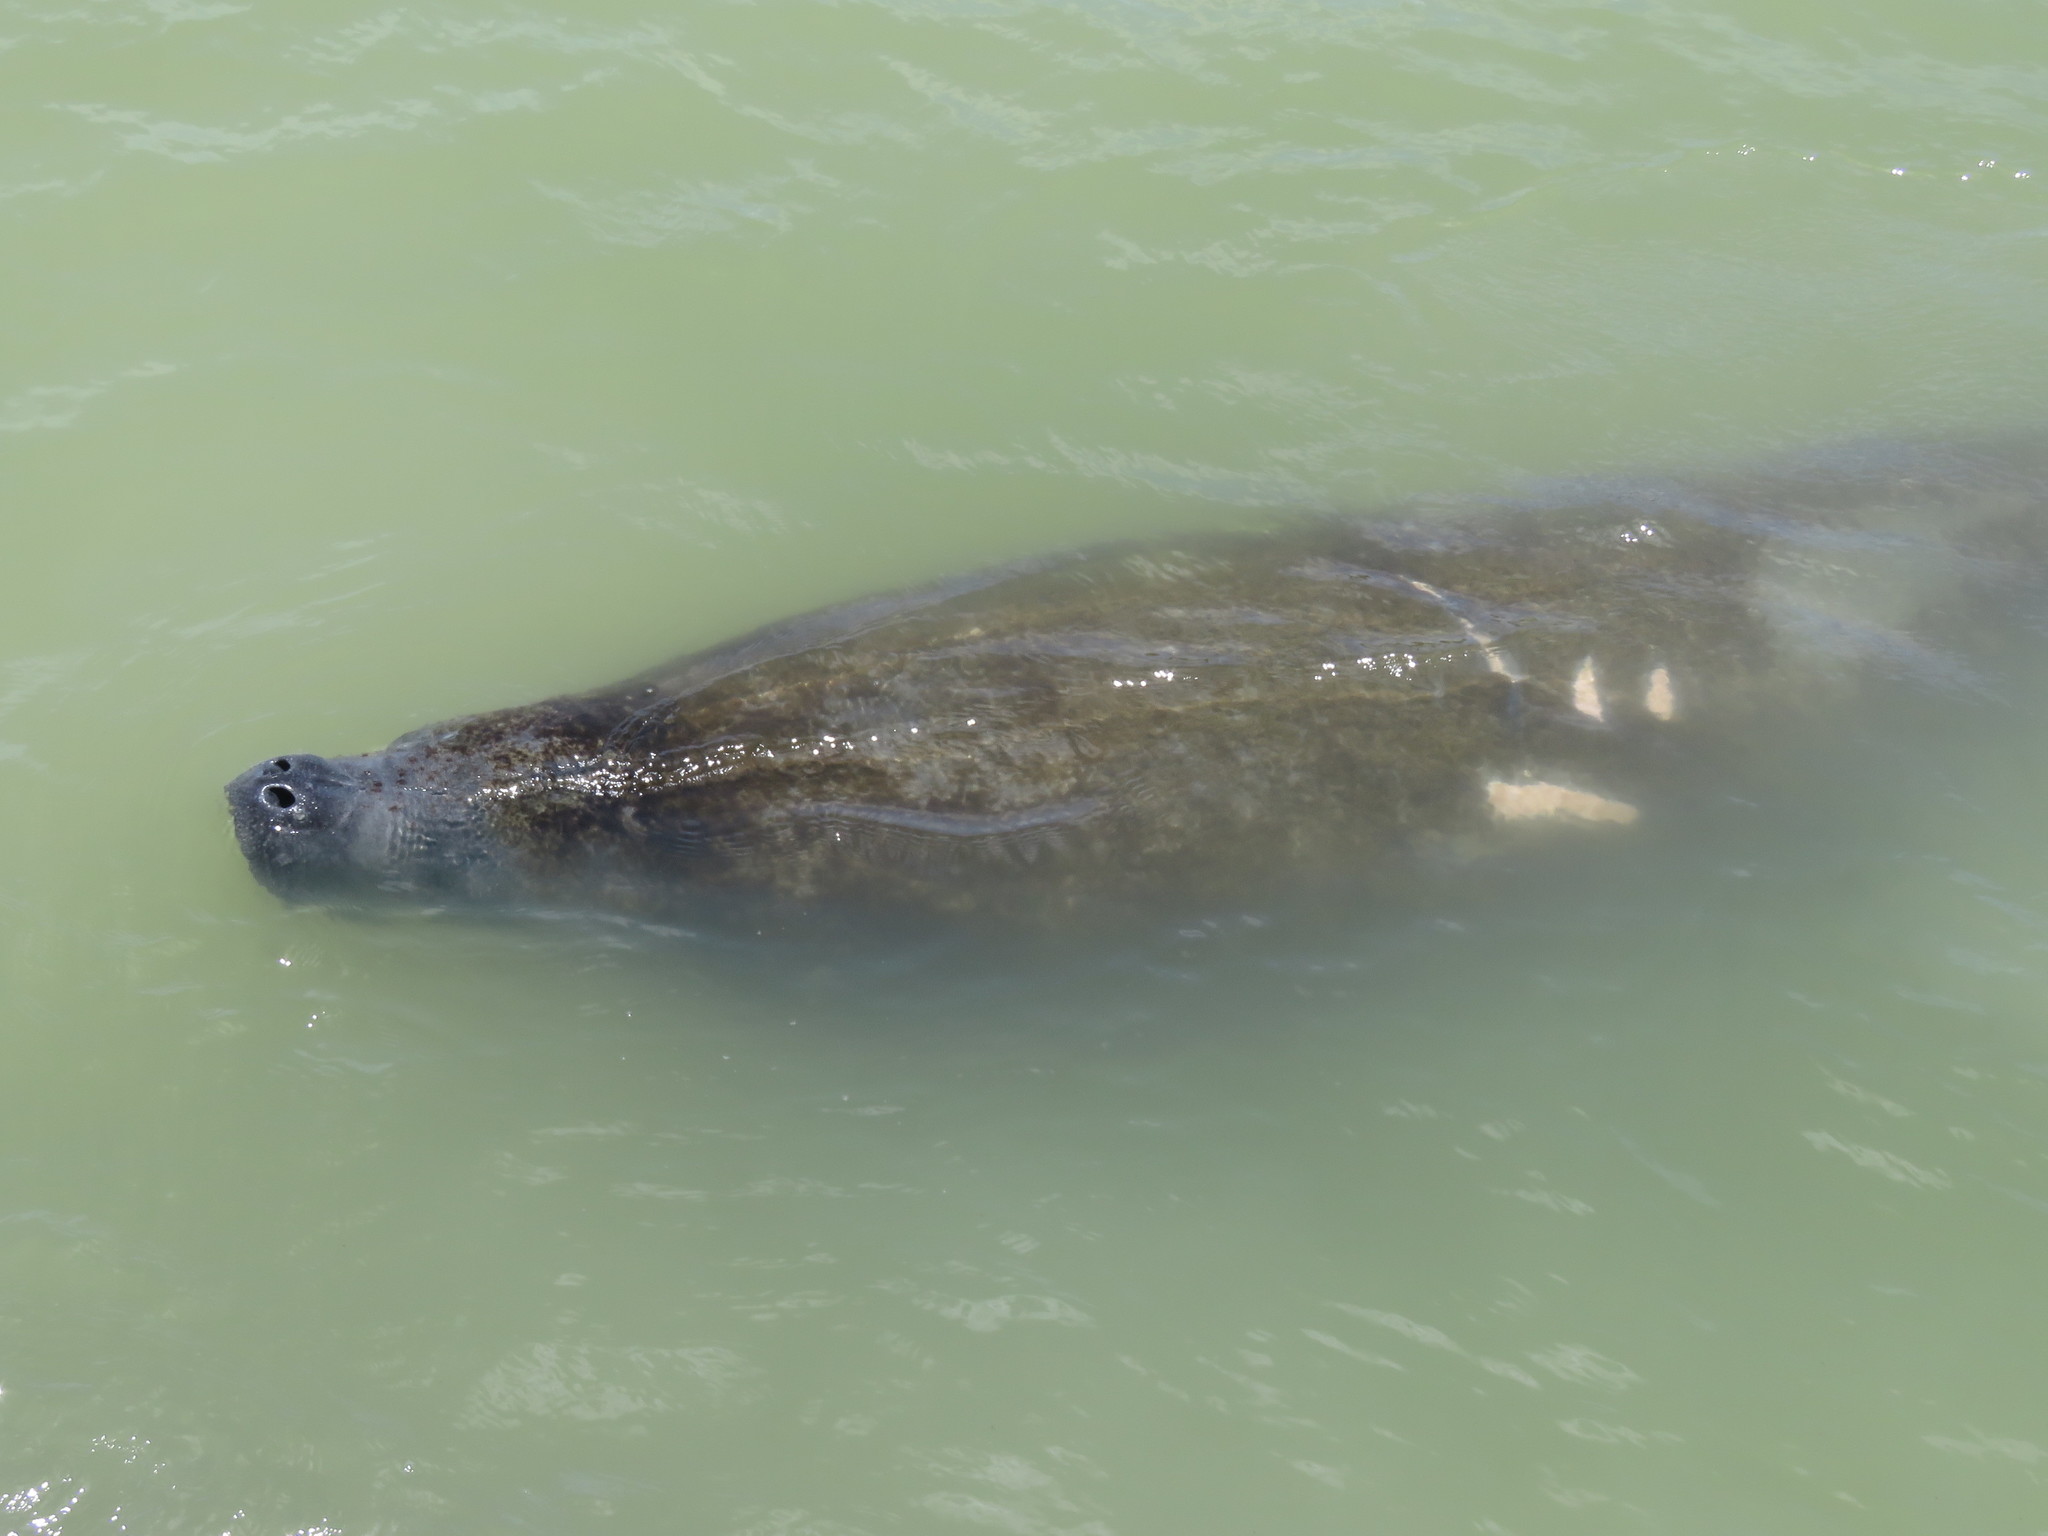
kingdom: Animalia
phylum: Chordata
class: Mammalia
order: Sirenia
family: Trichechidae
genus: Trichechus
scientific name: Trichechus manatus
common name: West indian manatee
